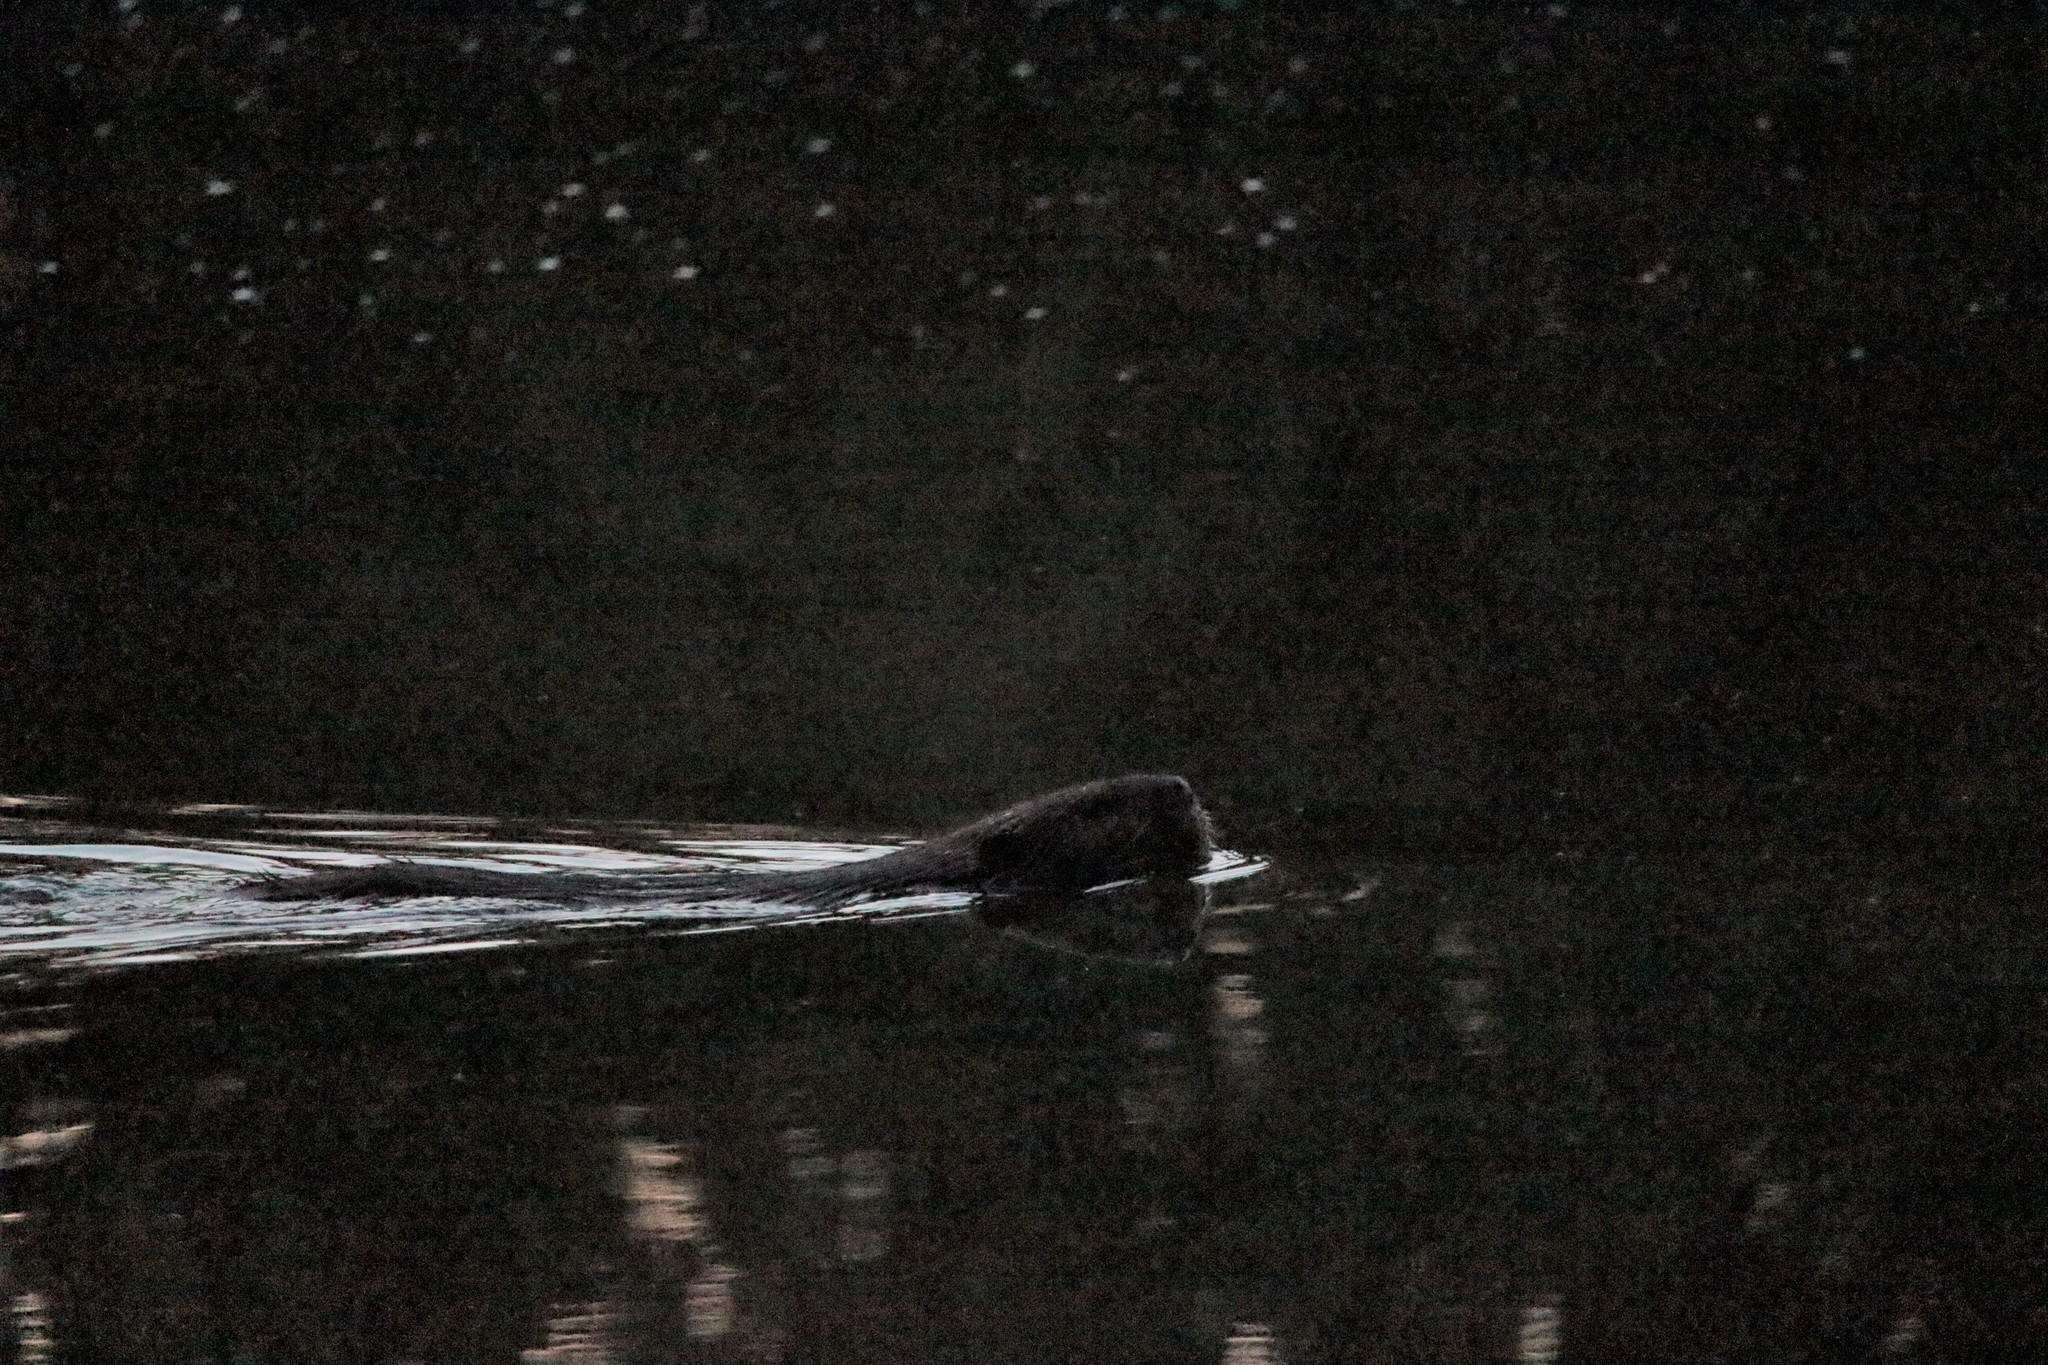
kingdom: Animalia
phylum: Chordata
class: Mammalia
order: Rodentia
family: Castoridae
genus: Castor
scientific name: Castor canadensis
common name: American beaver
